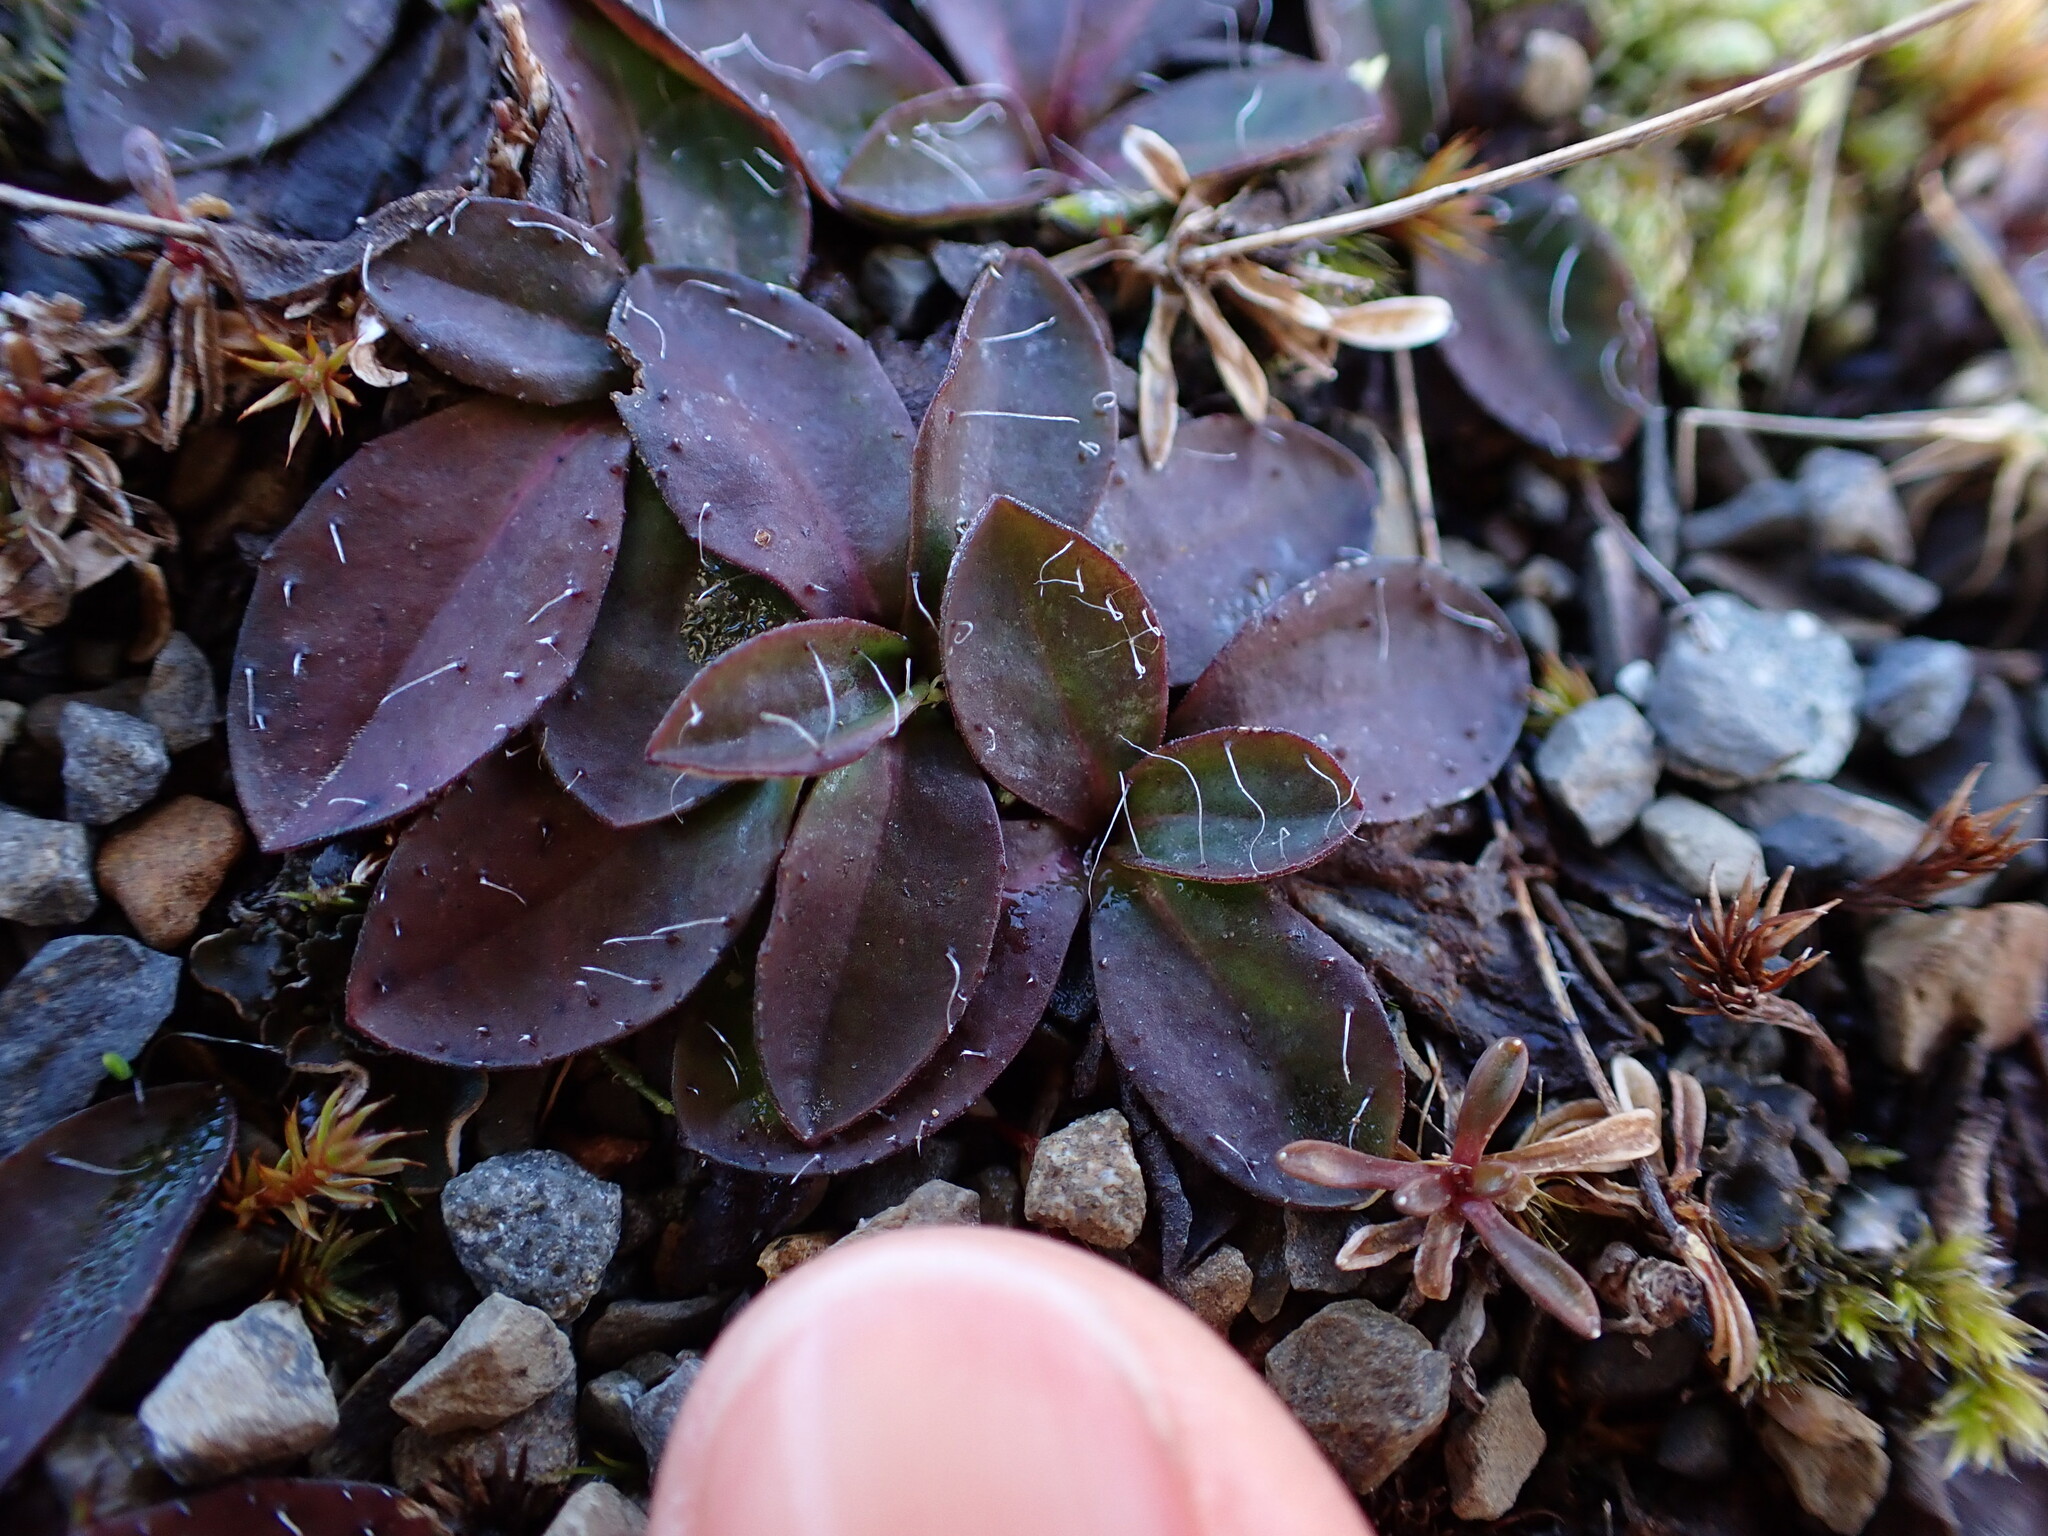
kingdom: Plantae
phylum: Tracheophyta
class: Magnoliopsida
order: Asterales
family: Asteraceae
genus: Pilosella
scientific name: Pilosella officinarum
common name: Mouse-ear hawkweed
